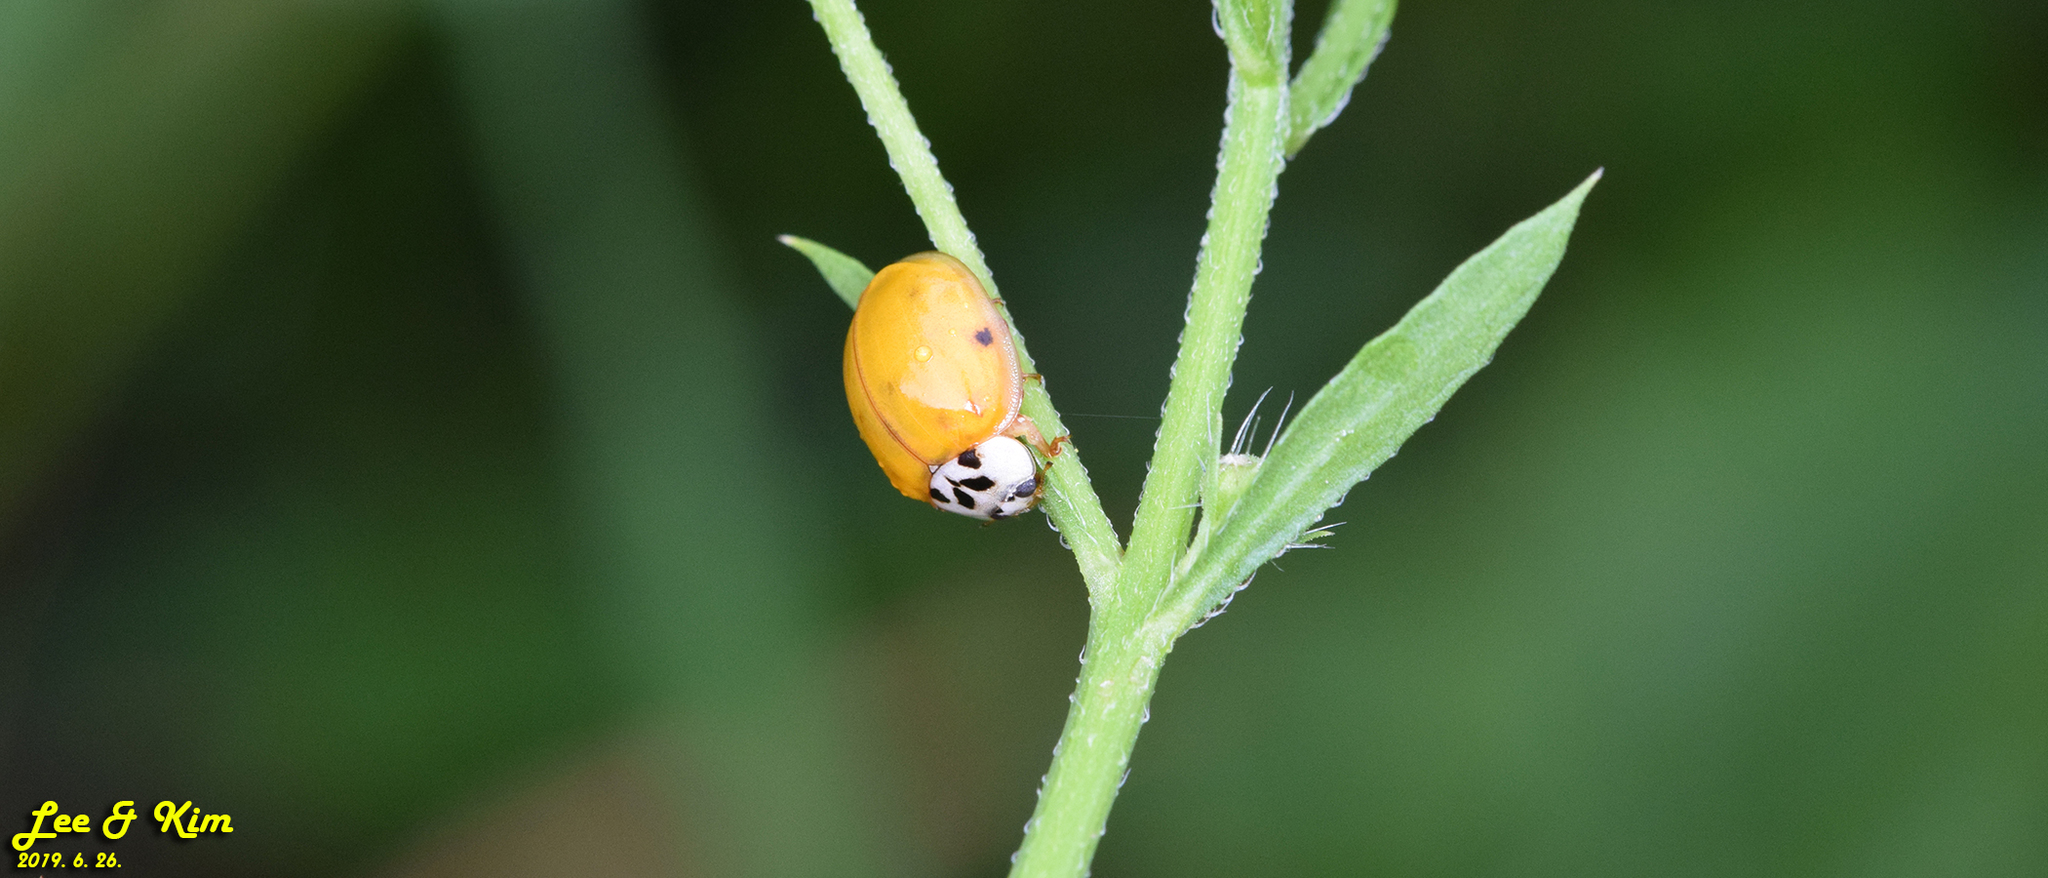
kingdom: Animalia
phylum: Arthropoda
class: Insecta
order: Coleoptera
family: Coccinellidae
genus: Harmonia
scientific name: Harmonia axyridis
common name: Harlequin ladybird
